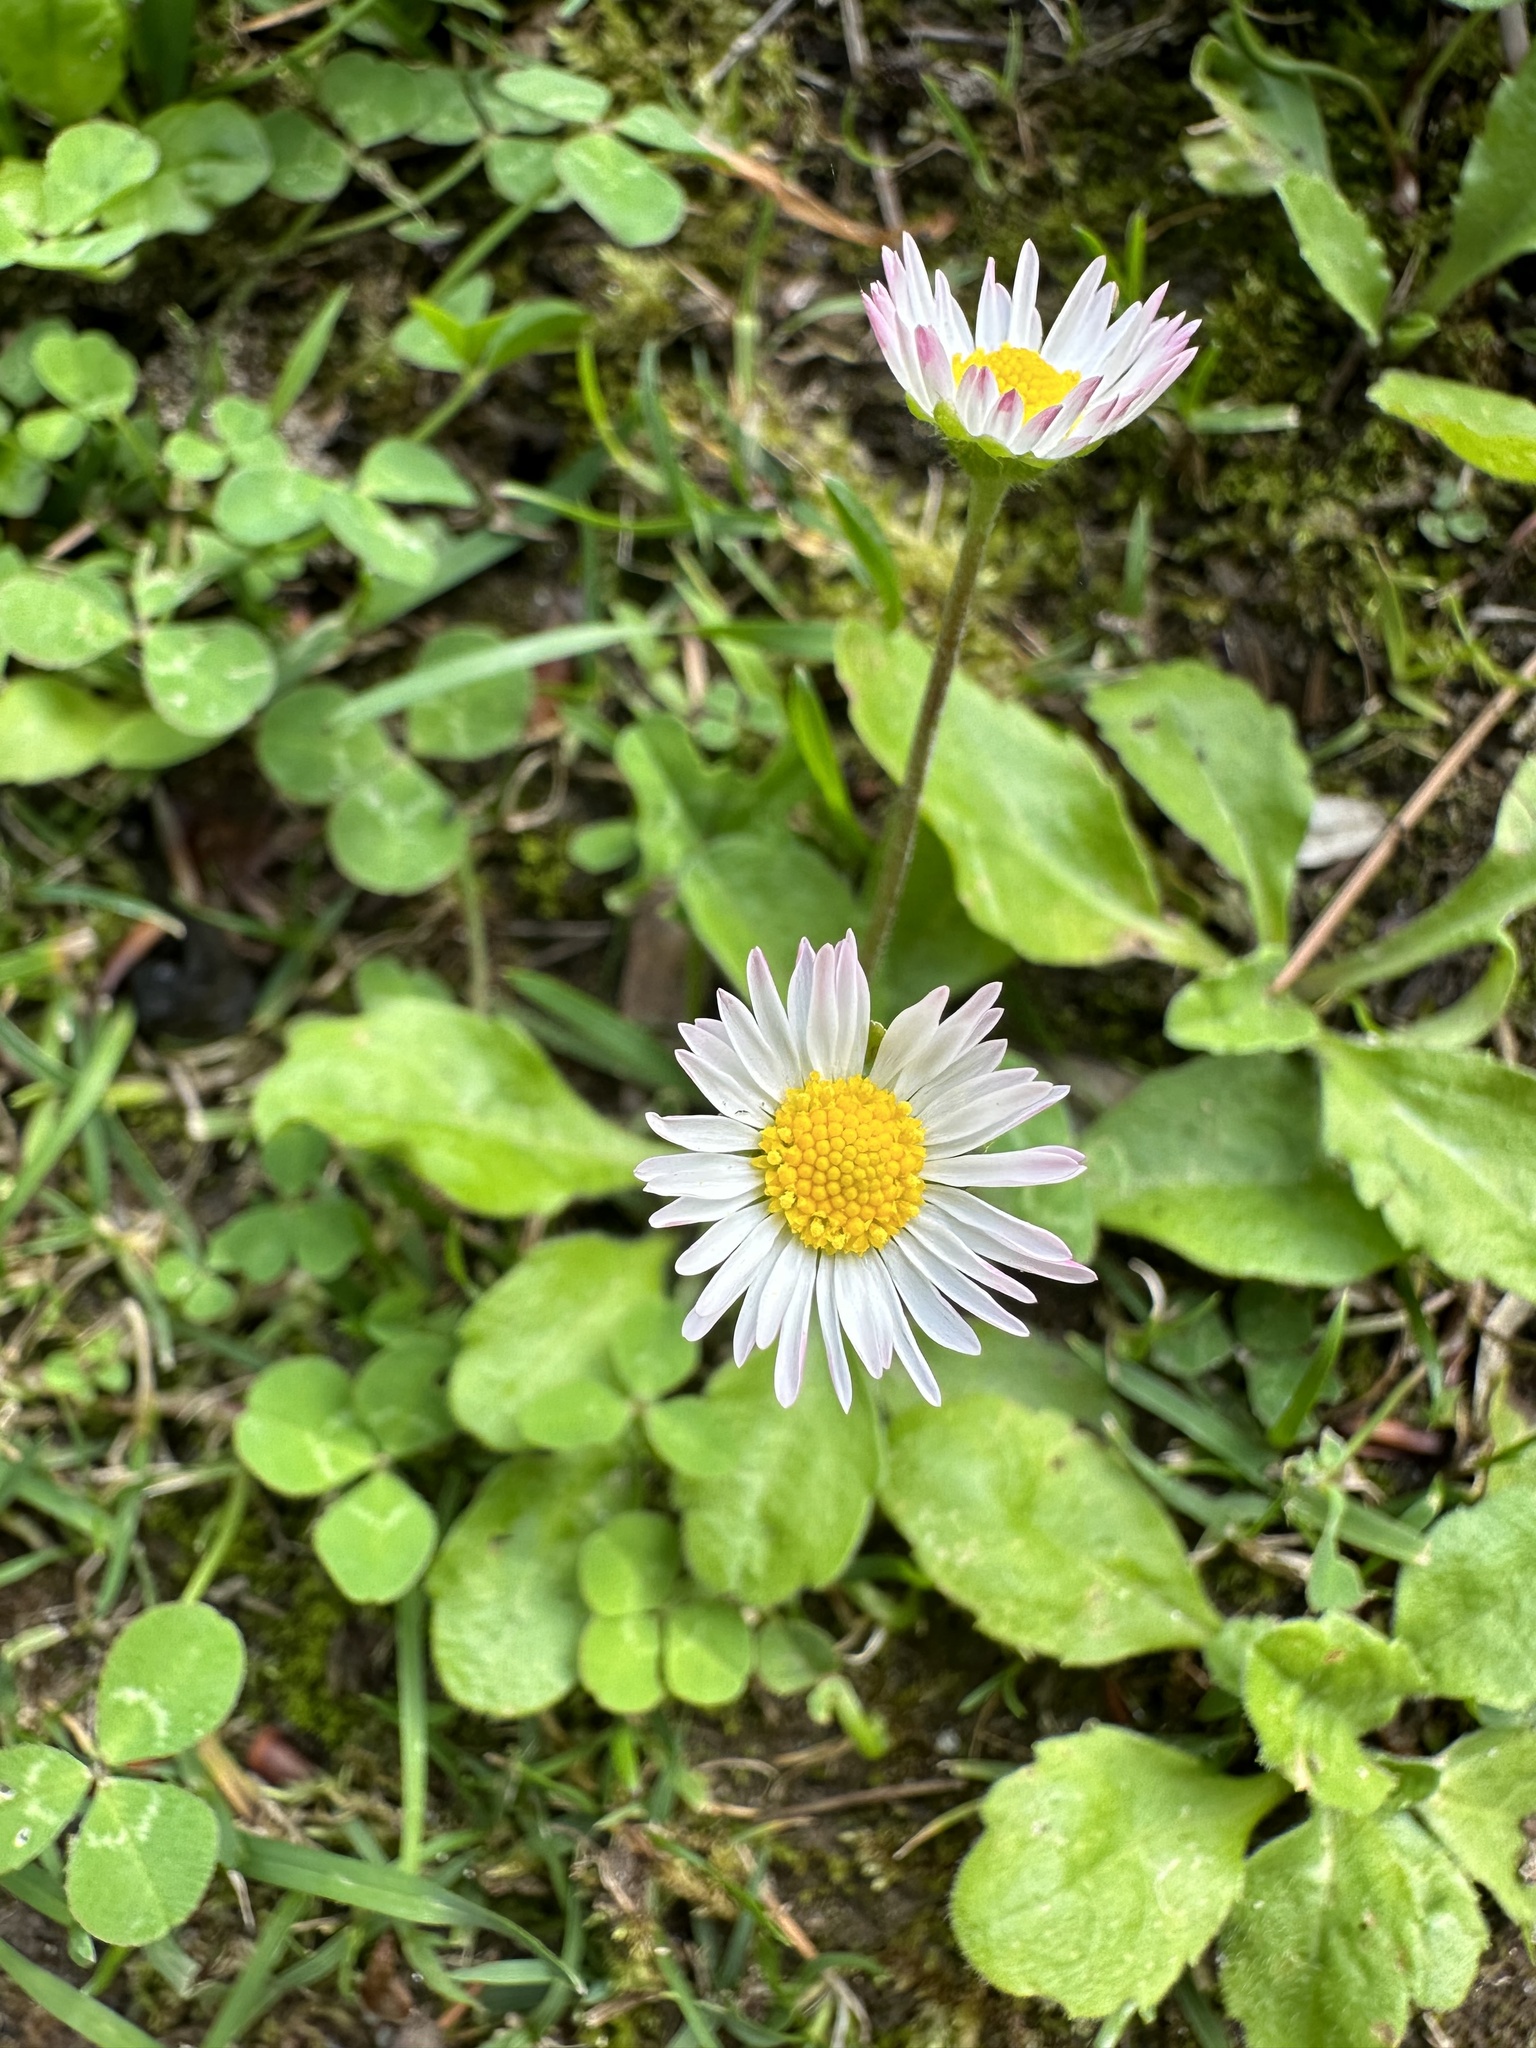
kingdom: Plantae
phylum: Tracheophyta
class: Magnoliopsida
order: Asterales
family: Asteraceae
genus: Bellis
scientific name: Bellis perennis
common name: Lawndaisy
